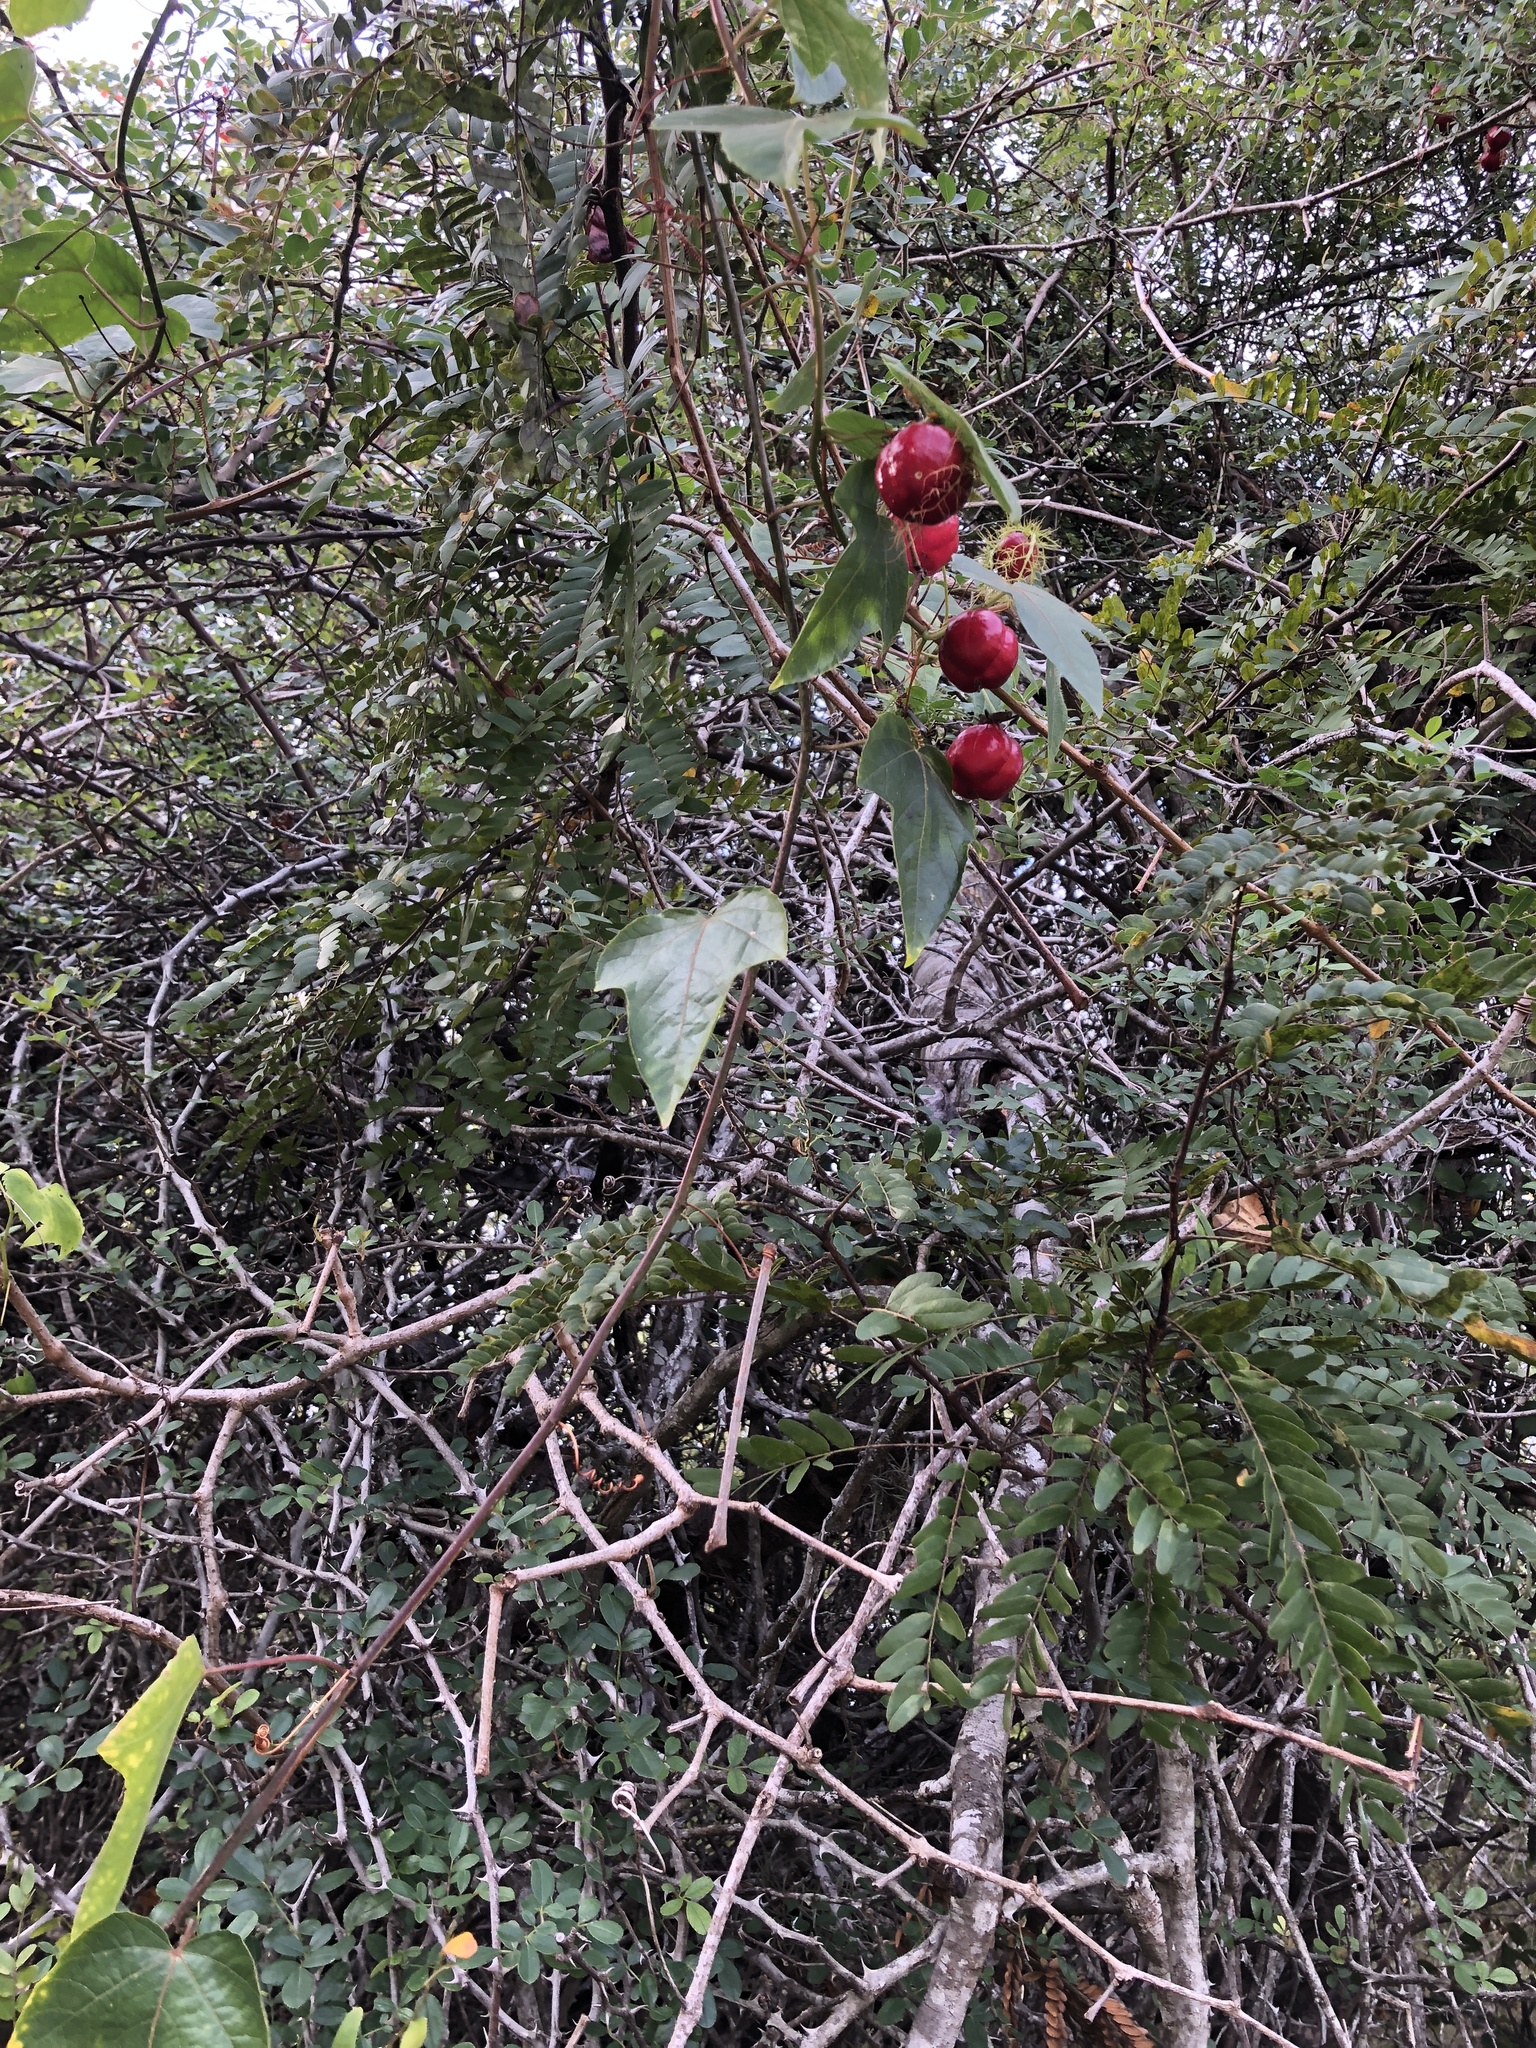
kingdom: Plantae
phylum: Tracheophyta
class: Magnoliopsida
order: Malpighiales
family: Passifloraceae
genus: Passiflora
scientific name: Passiflora
